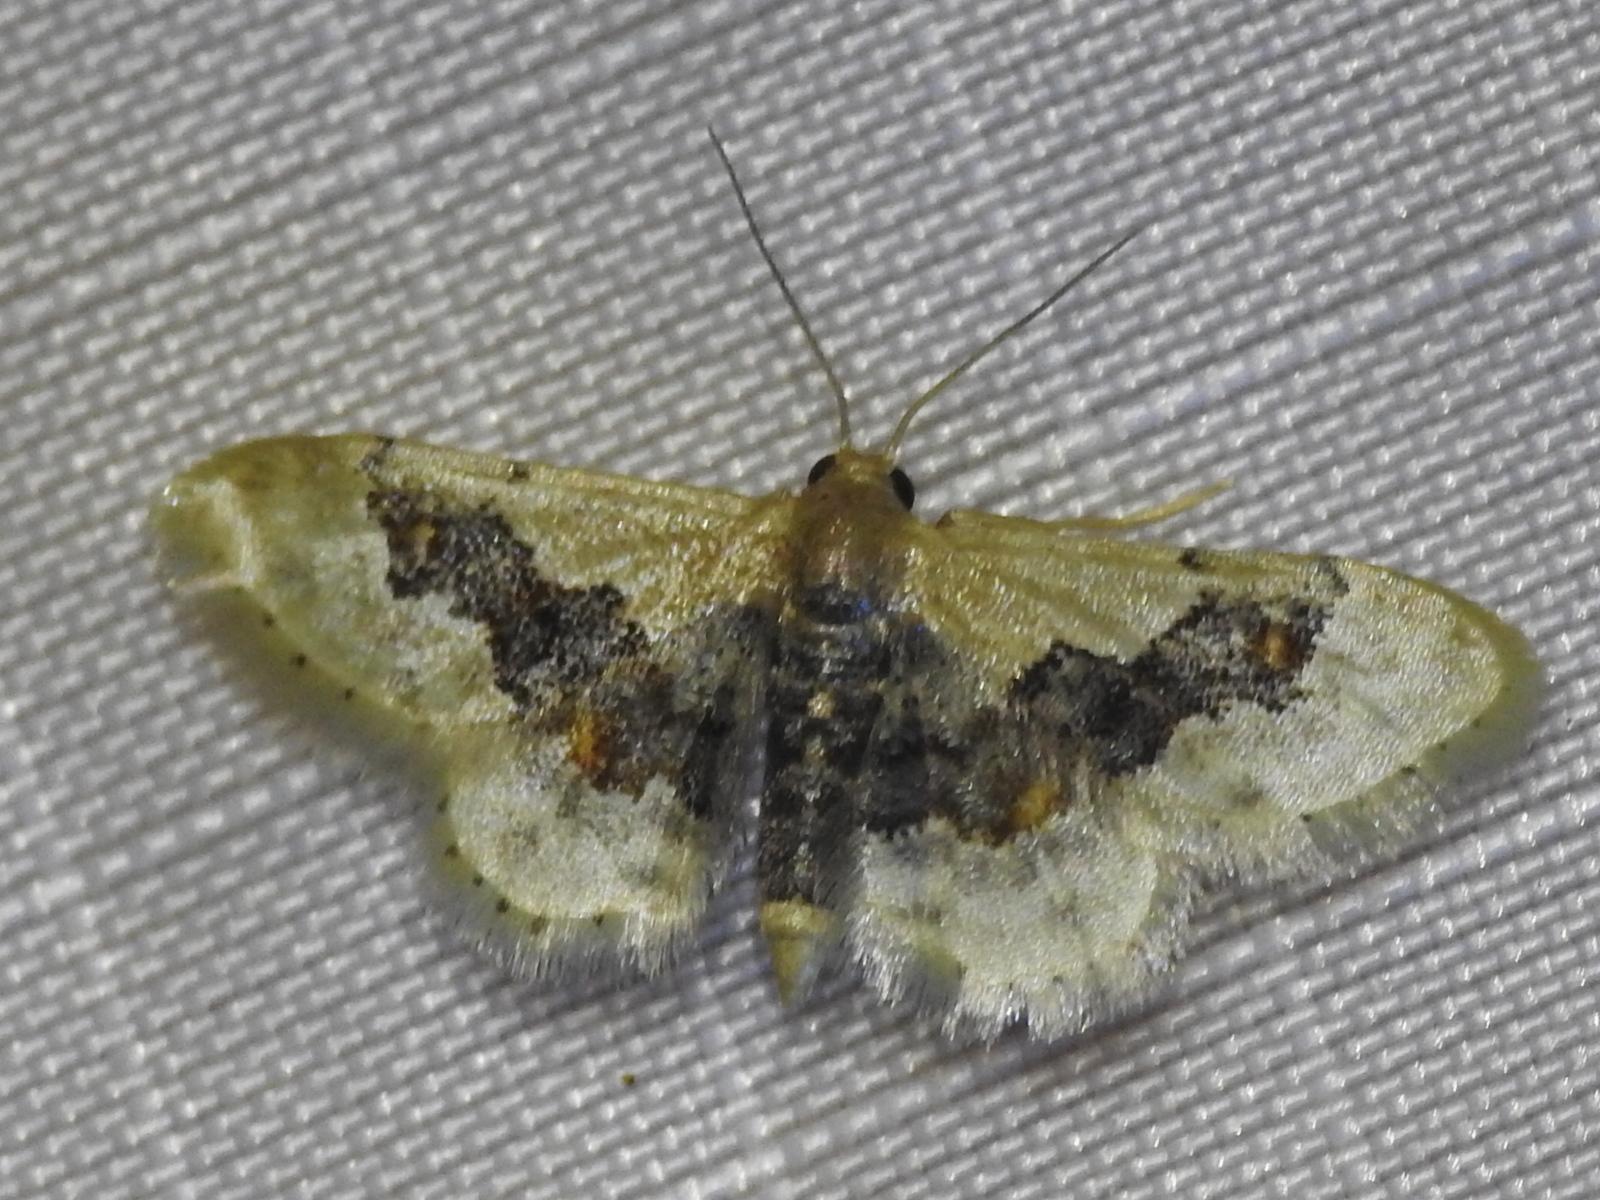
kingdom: Animalia
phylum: Arthropoda
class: Insecta
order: Lepidoptera
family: Geometridae
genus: Idaea
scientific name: Idaea gemmata
